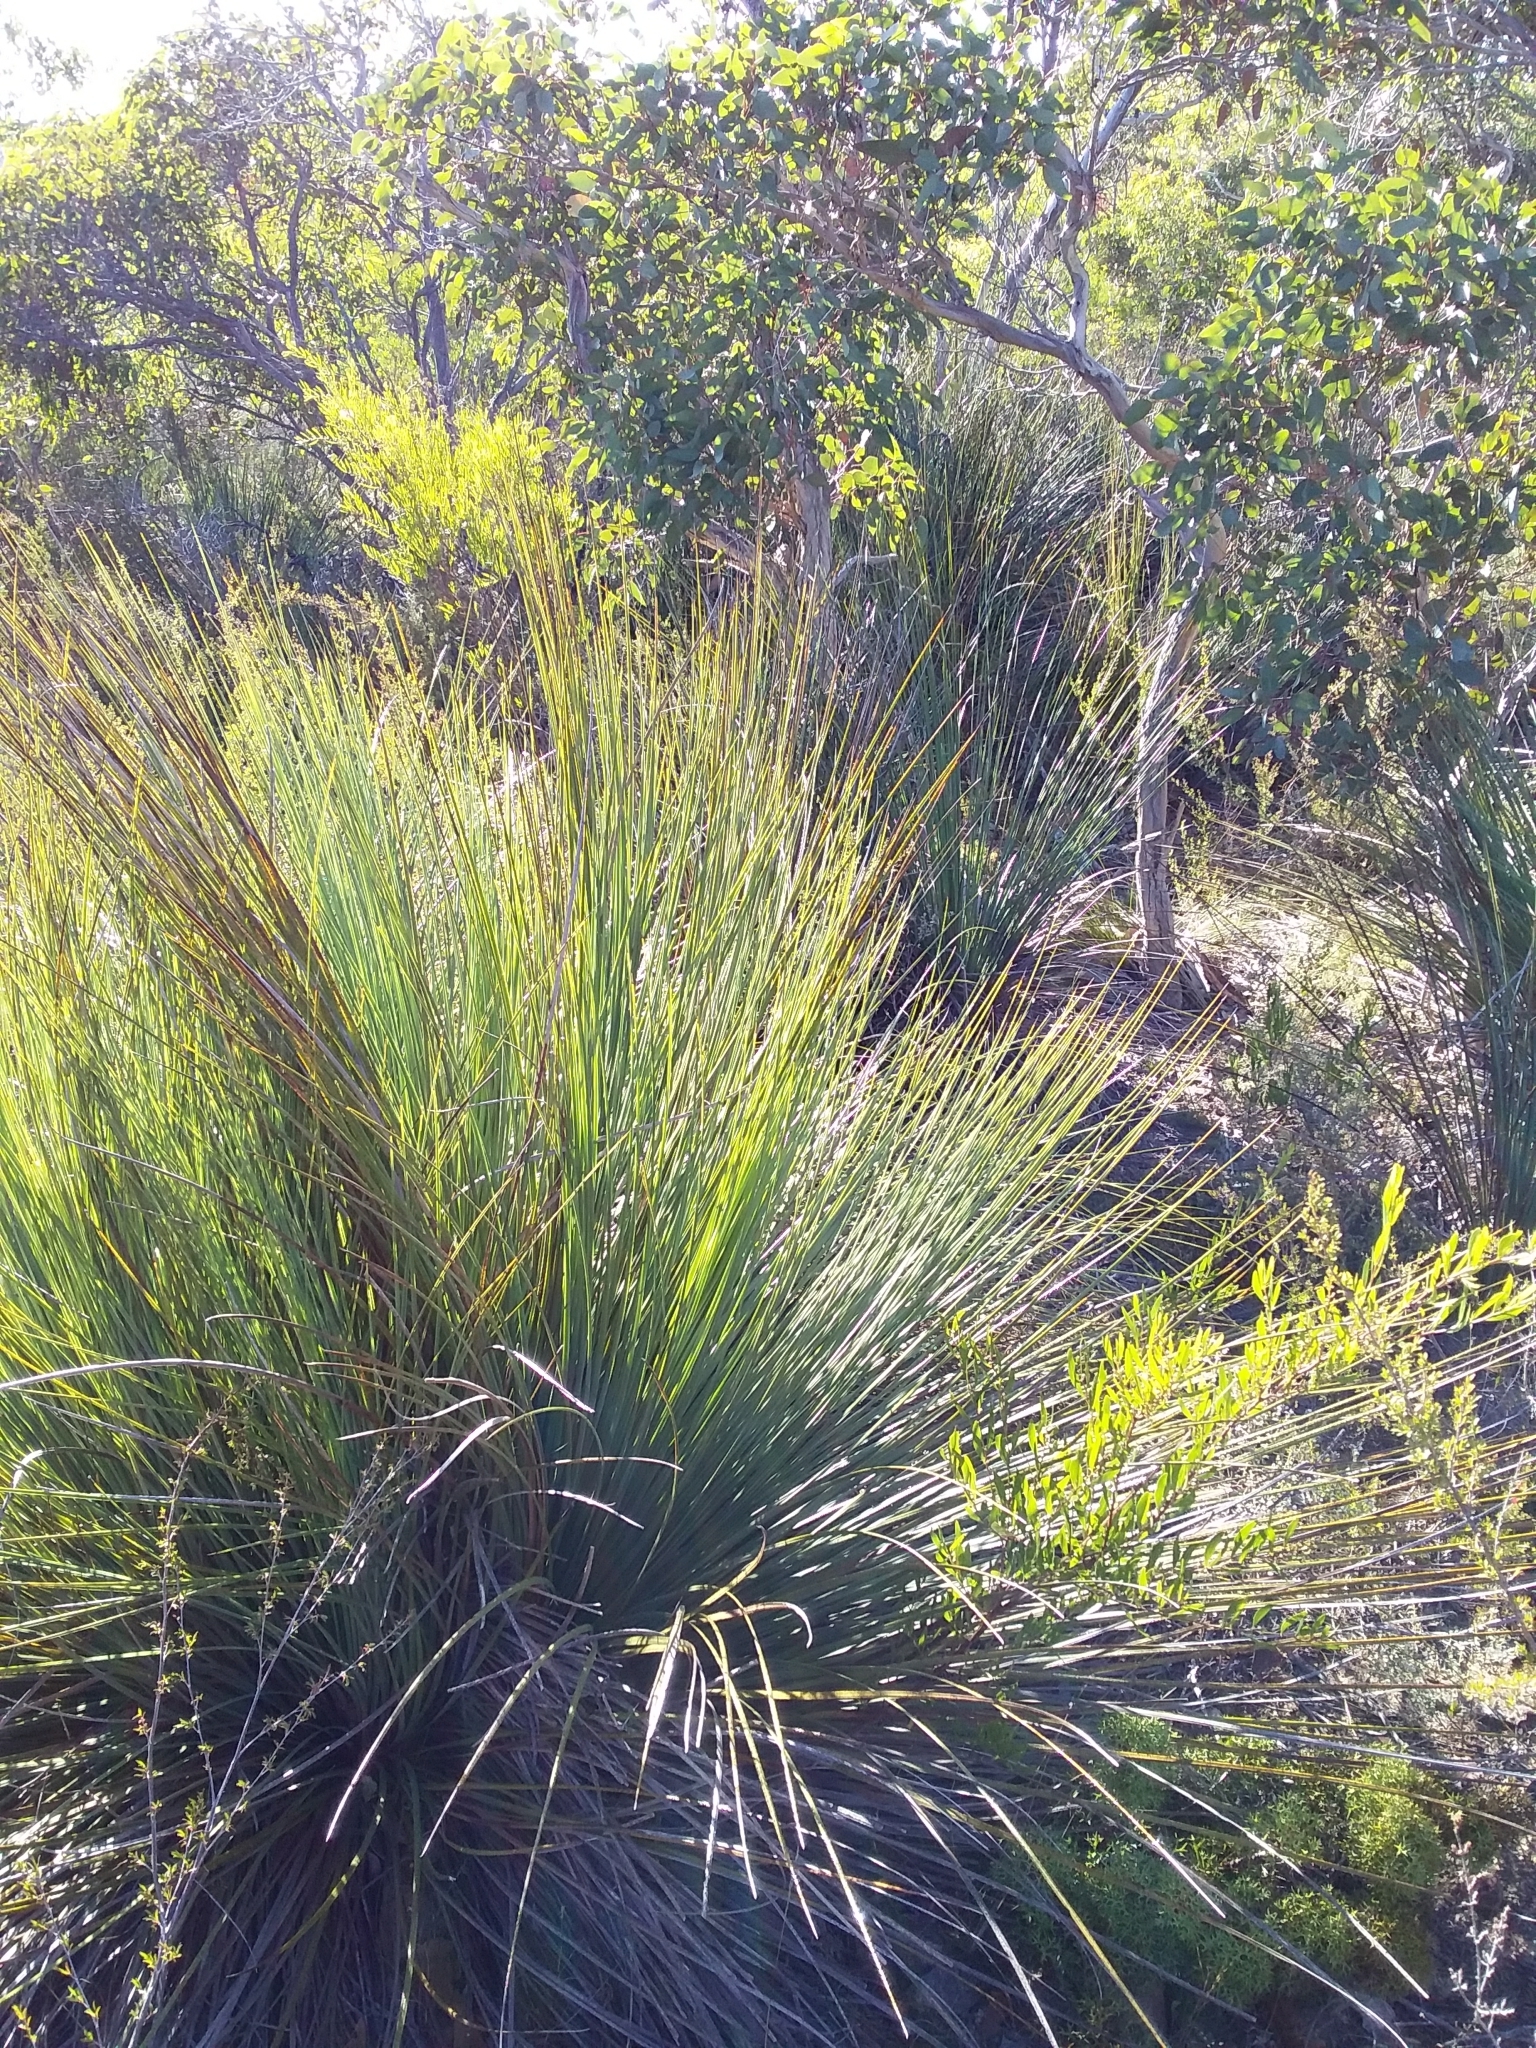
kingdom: Plantae
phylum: Tracheophyta
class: Liliopsida
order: Asparagales
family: Asphodelaceae
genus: Xanthorrhoea
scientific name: Xanthorrhoea semiplana
